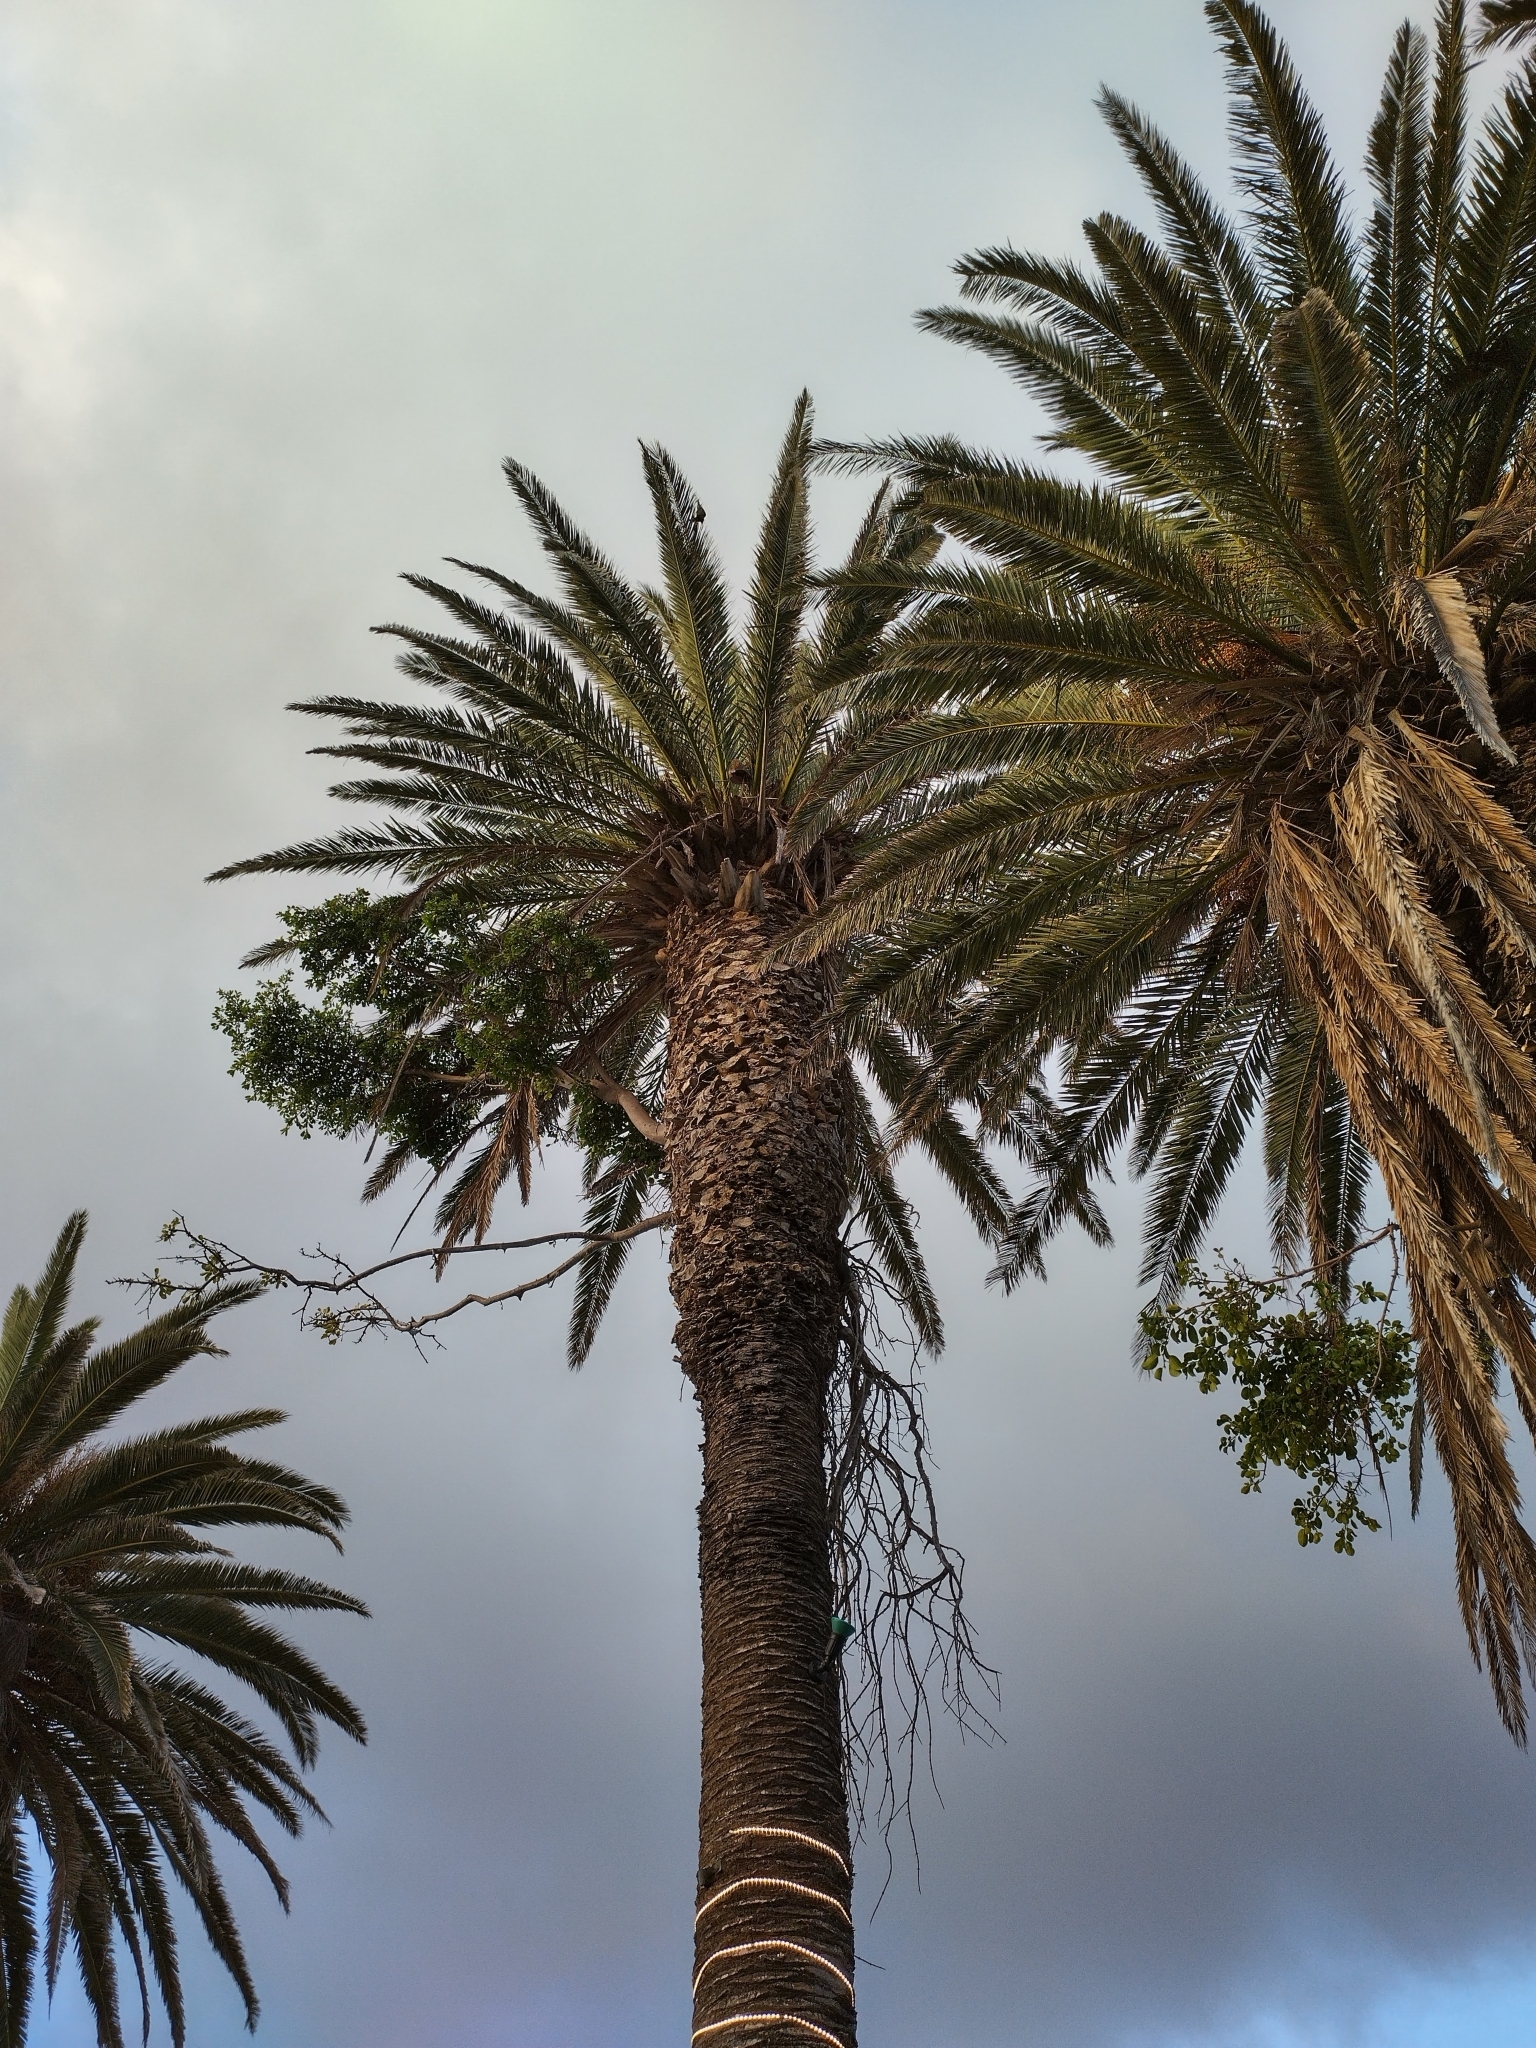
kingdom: Plantae
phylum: Tracheophyta
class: Magnoliopsida
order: Rosales
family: Moraceae
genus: Ficus
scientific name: Ficus thonningii
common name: Fig
